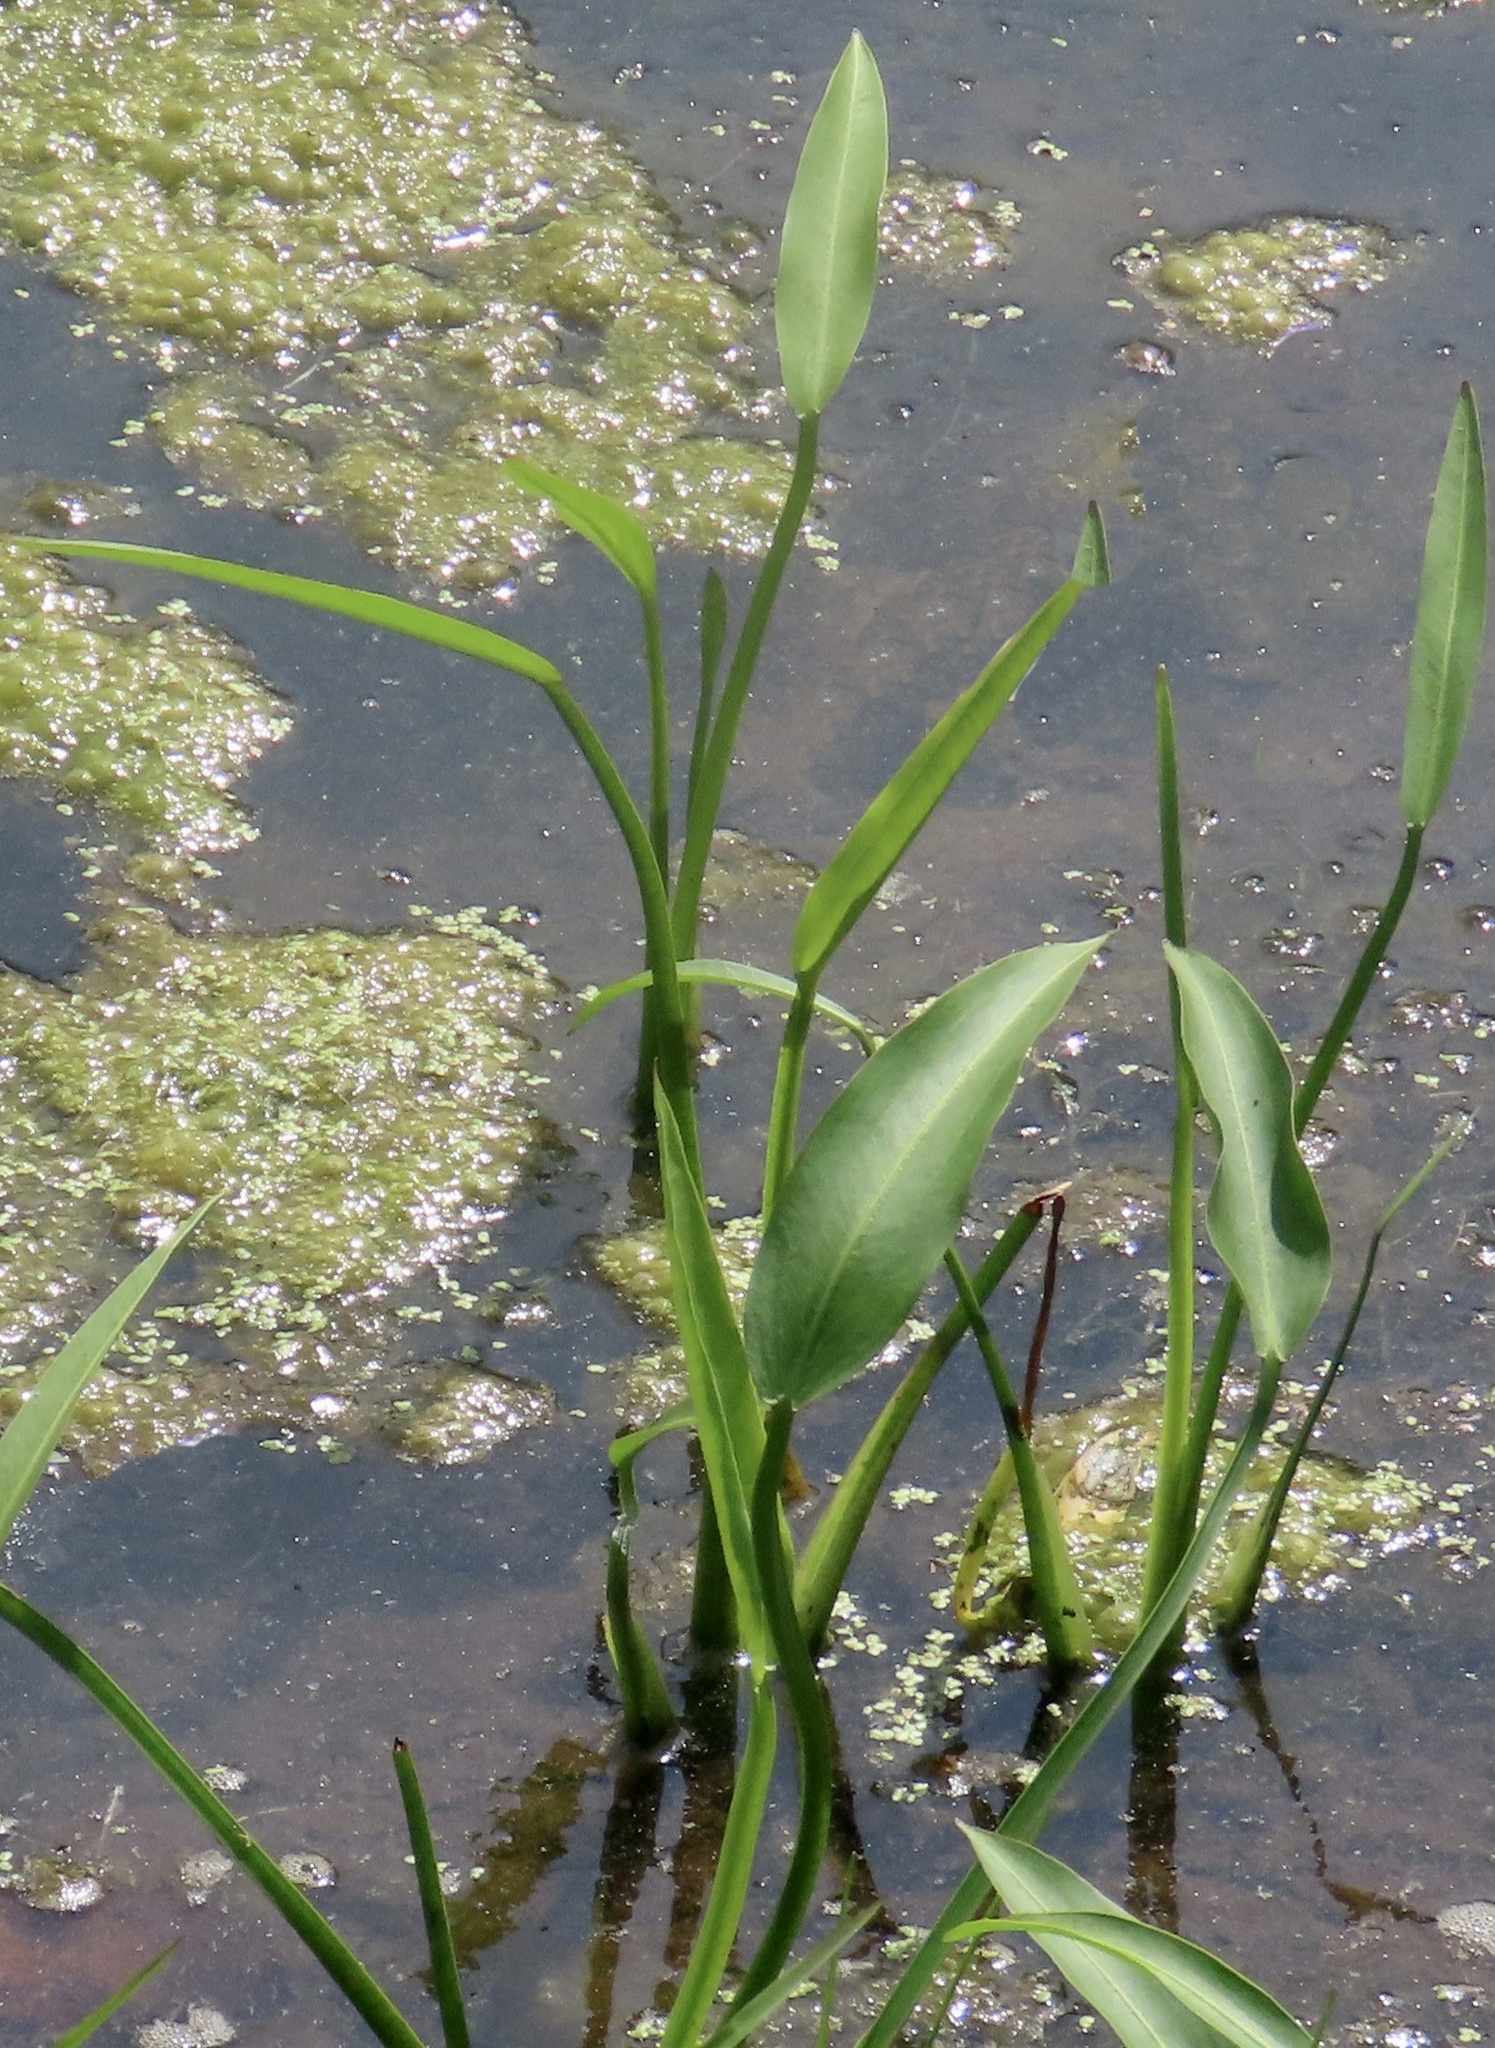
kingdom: Plantae
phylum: Tracheophyta
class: Liliopsida
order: Alismatales
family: Alismataceae
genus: Sagittaria
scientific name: Sagittaria platyphylla
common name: Broad-leaf arrowhead
